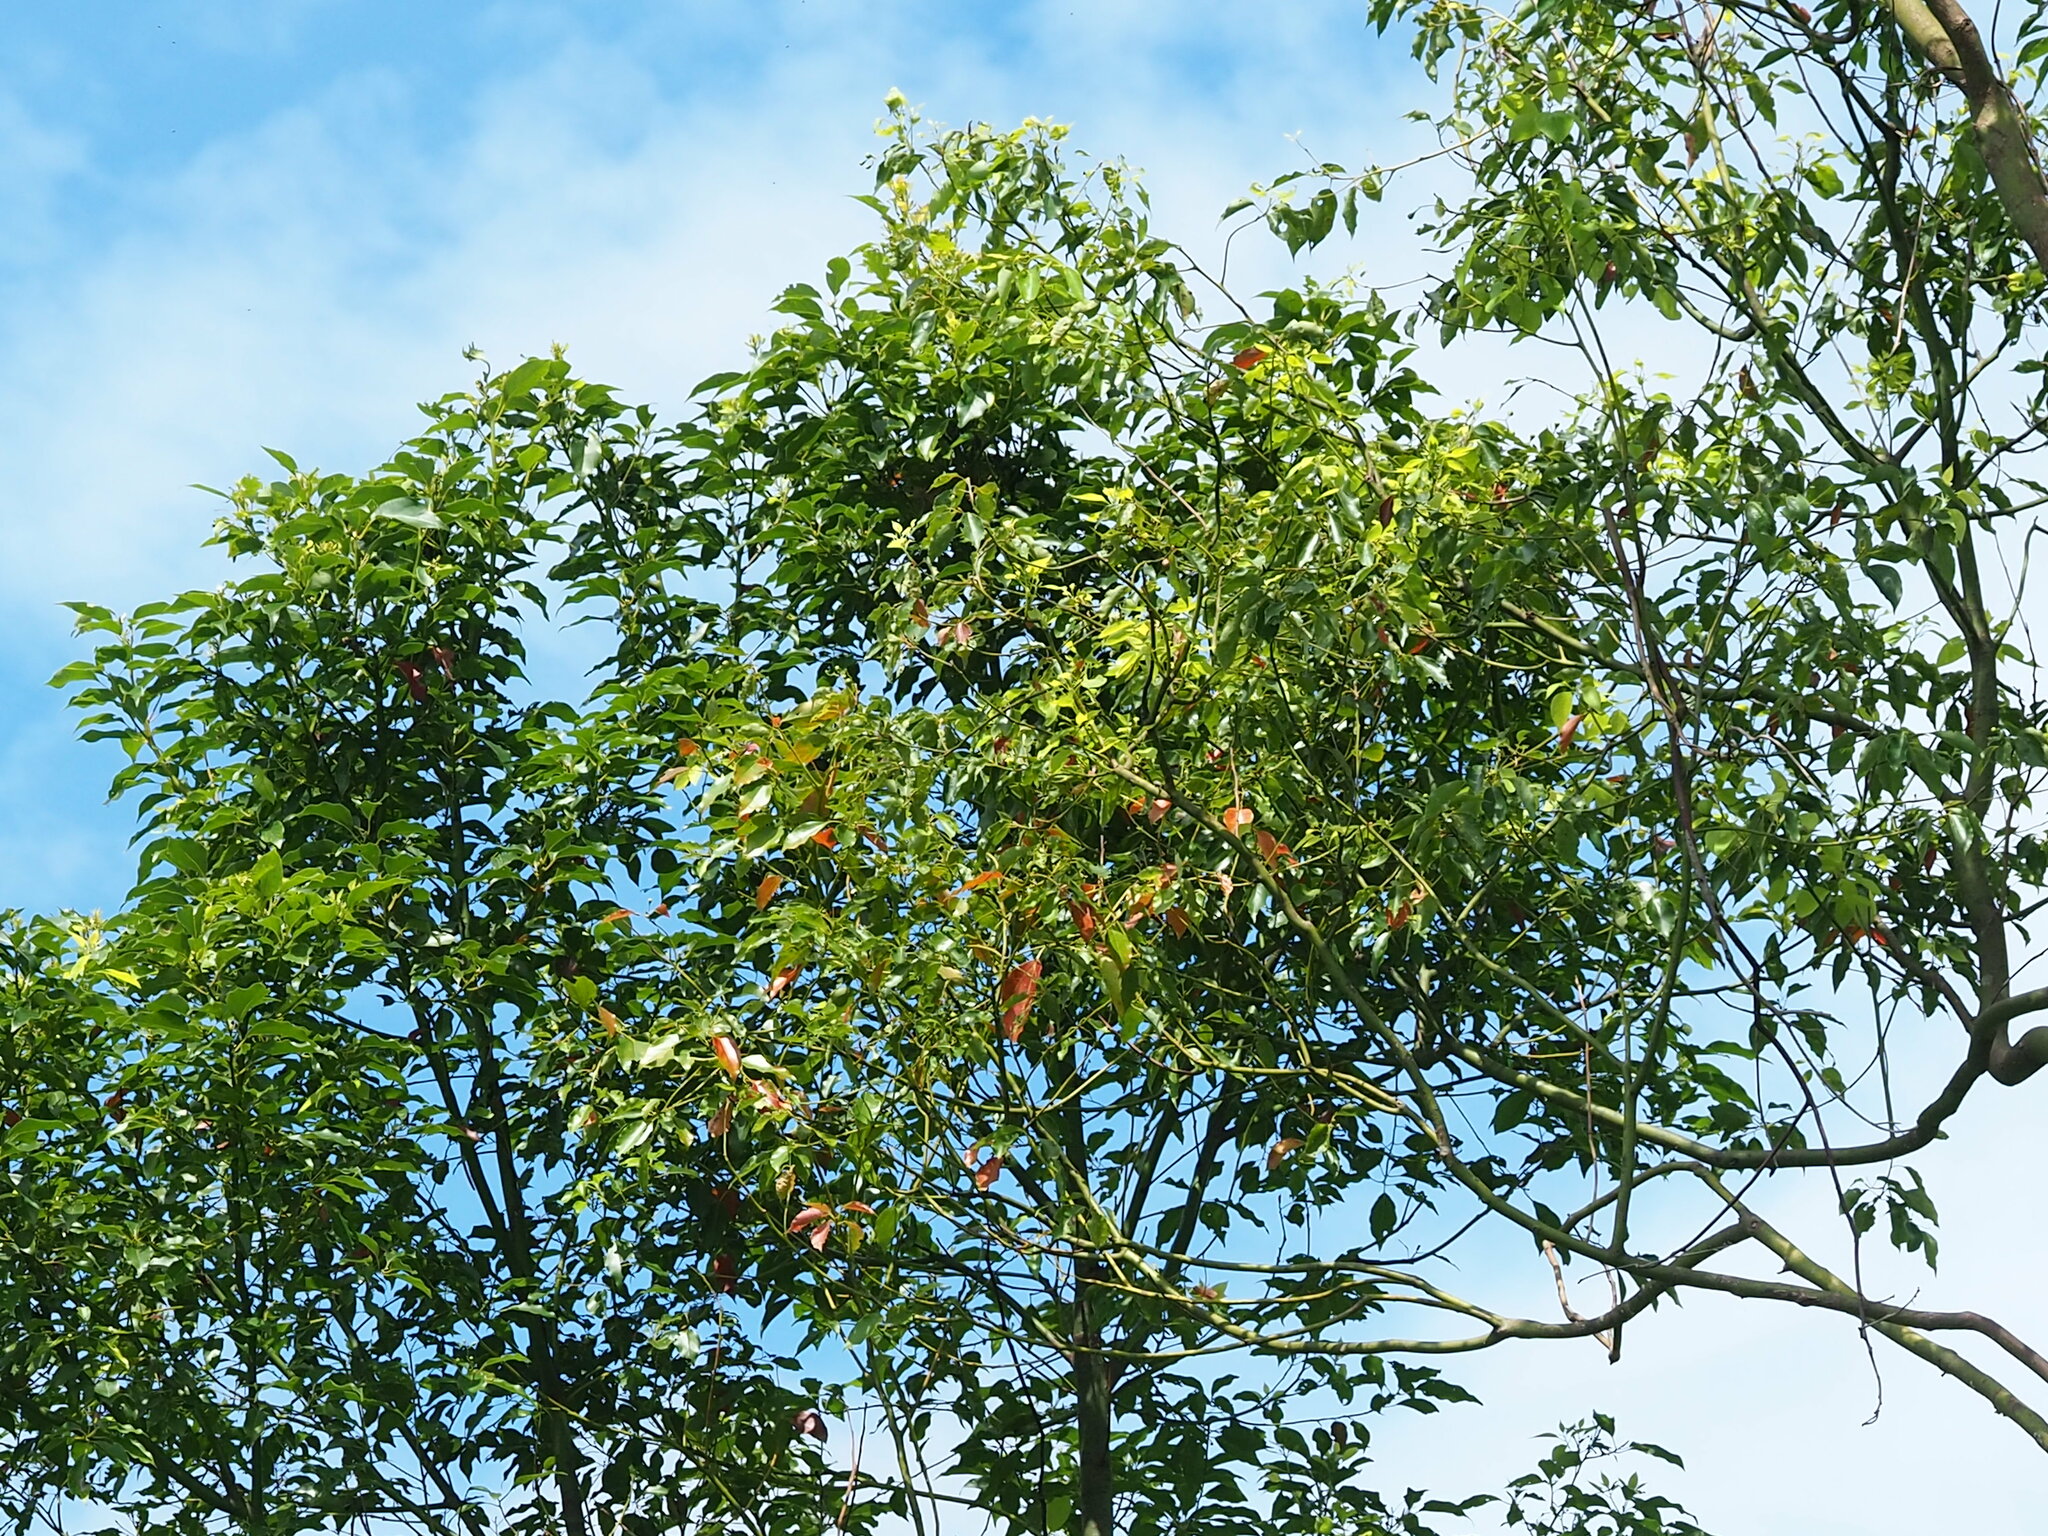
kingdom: Plantae
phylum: Tracheophyta
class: Magnoliopsida
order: Laurales
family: Lauraceae
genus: Cinnamomum
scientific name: Cinnamomum camphora
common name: Camphortree
